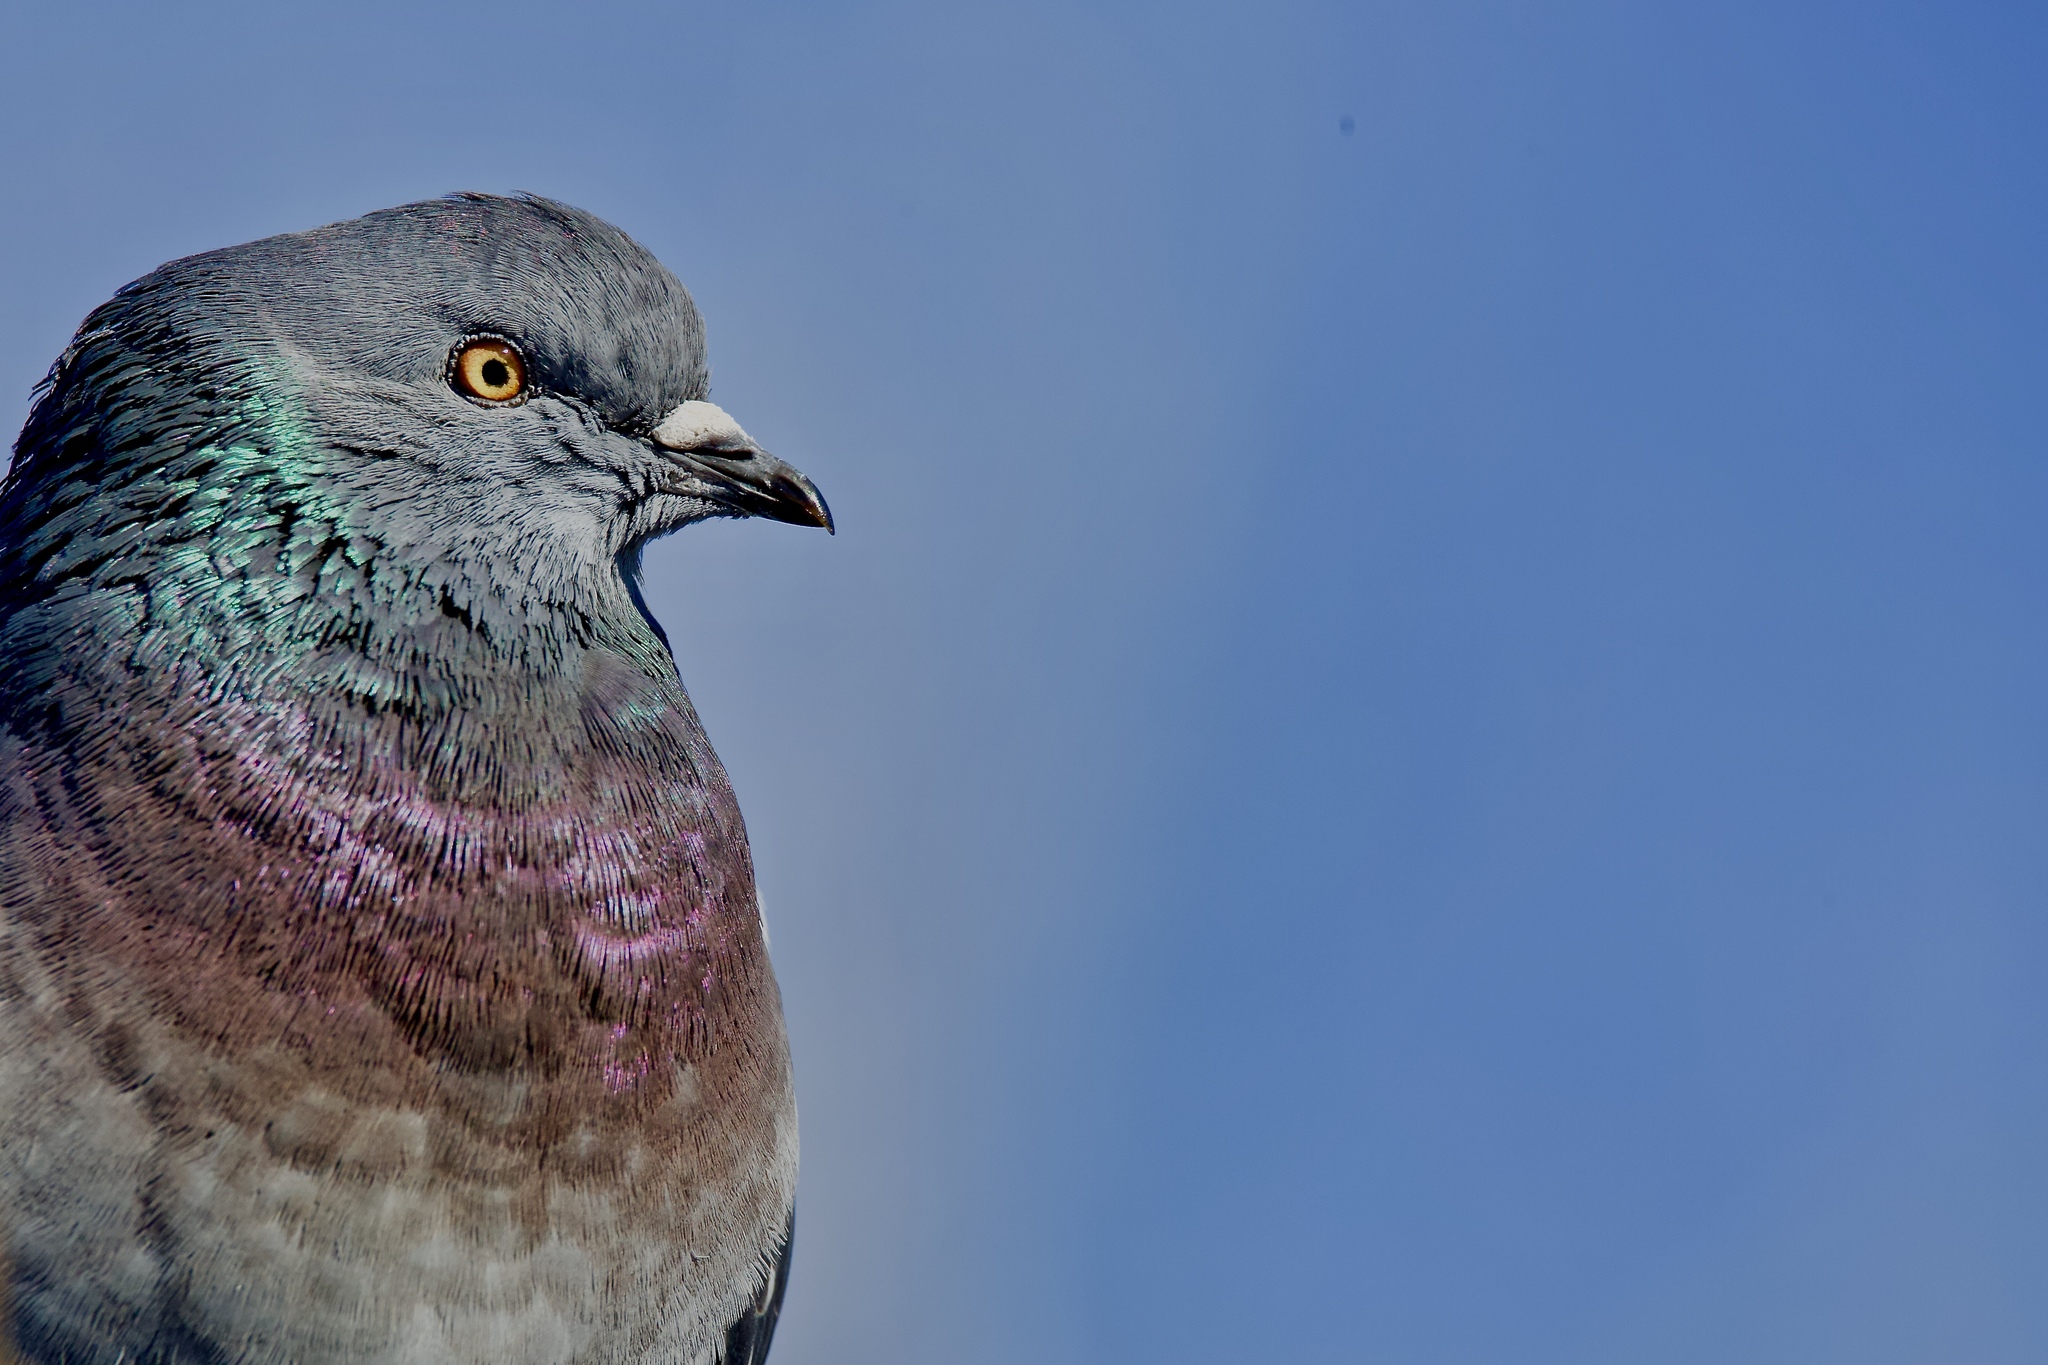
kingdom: Animalia
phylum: Chordata
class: Aves
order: Columbiformes
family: Columbidae
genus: Columba
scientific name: Columba livia
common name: Rock pigeon
